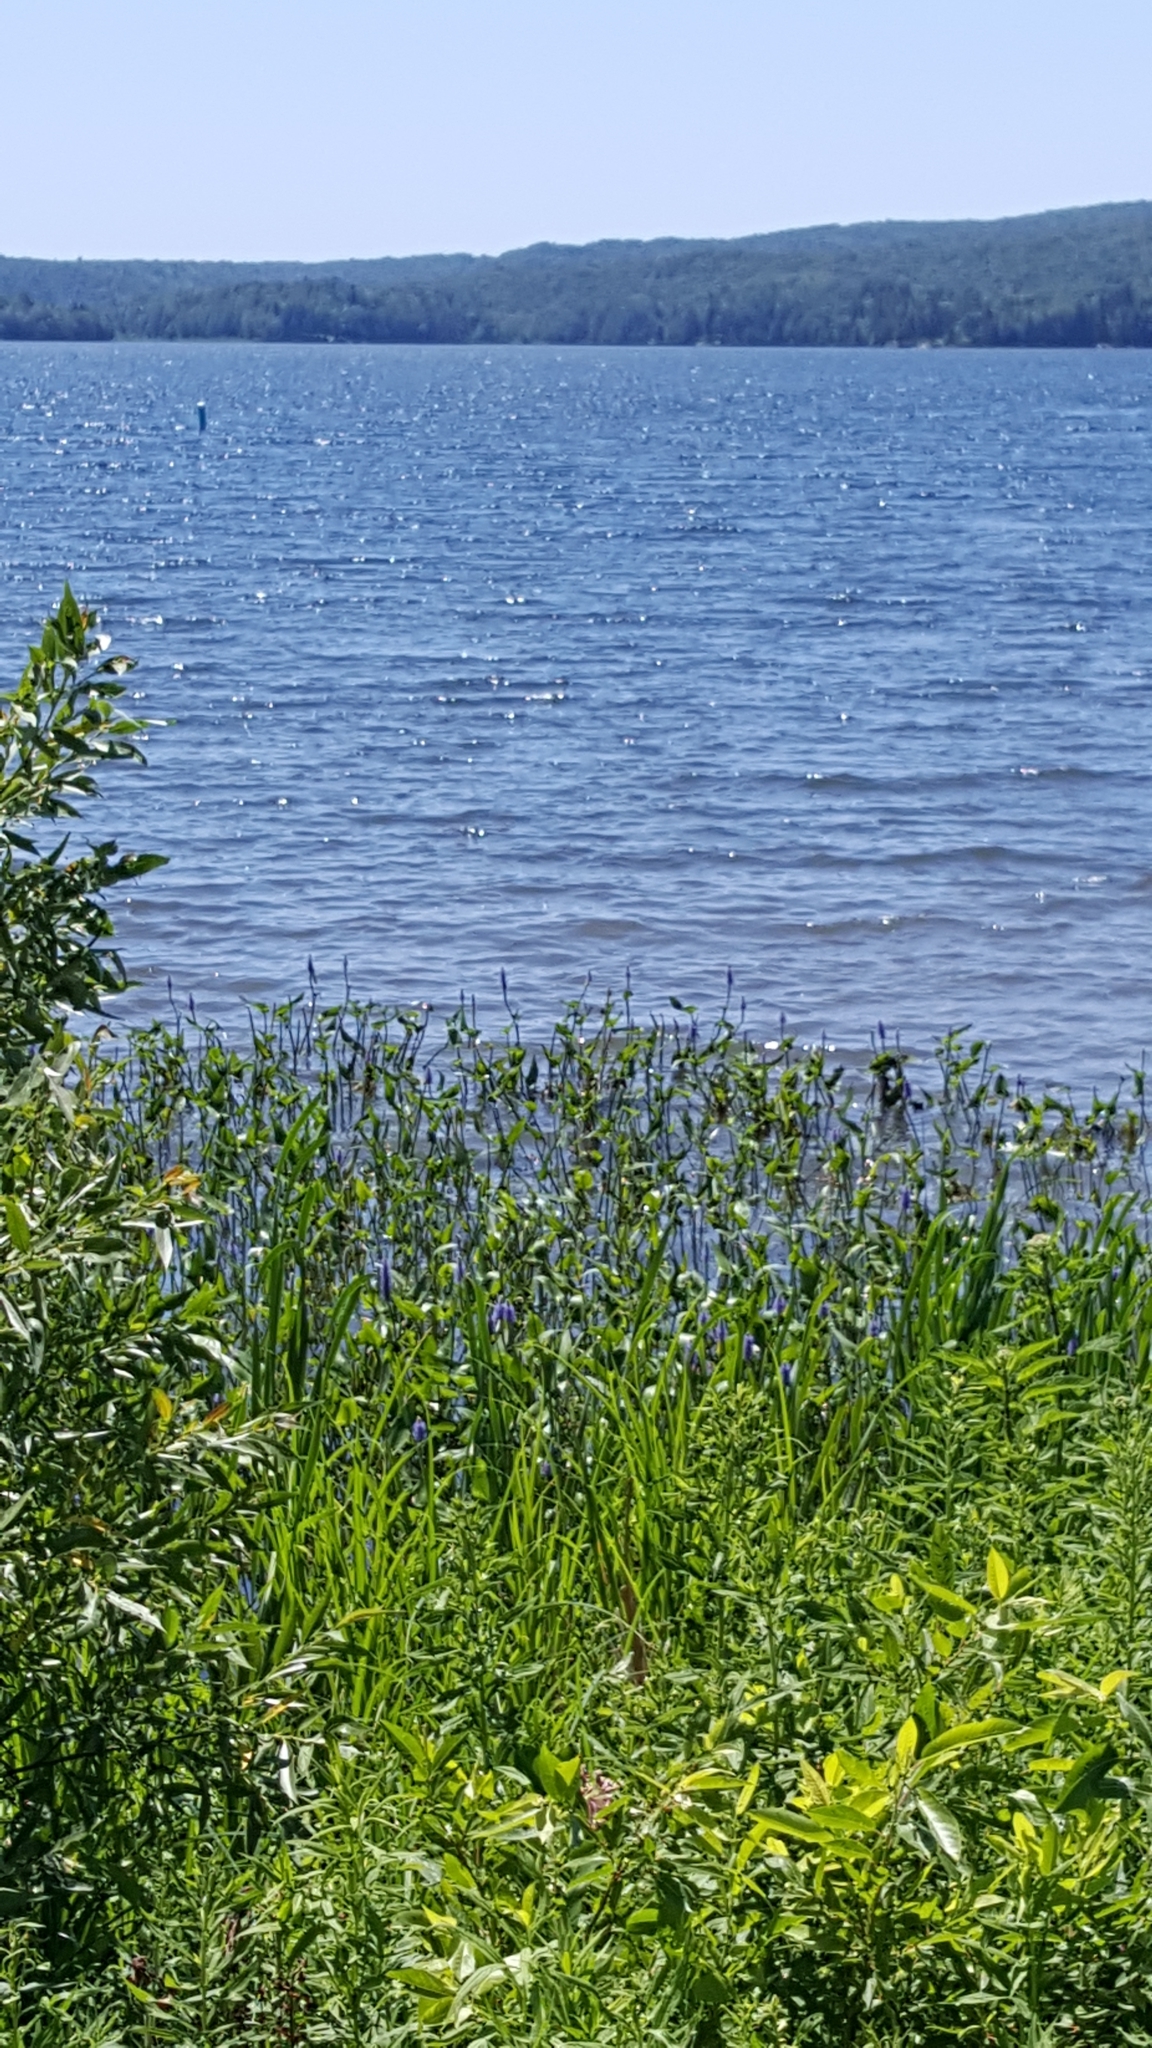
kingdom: Plantae
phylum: Tracheophyta
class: Liliopsida
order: Commelinales
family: Pontederiaceae
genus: Pontederia
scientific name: Pontederia cordata
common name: Pickerelweed
